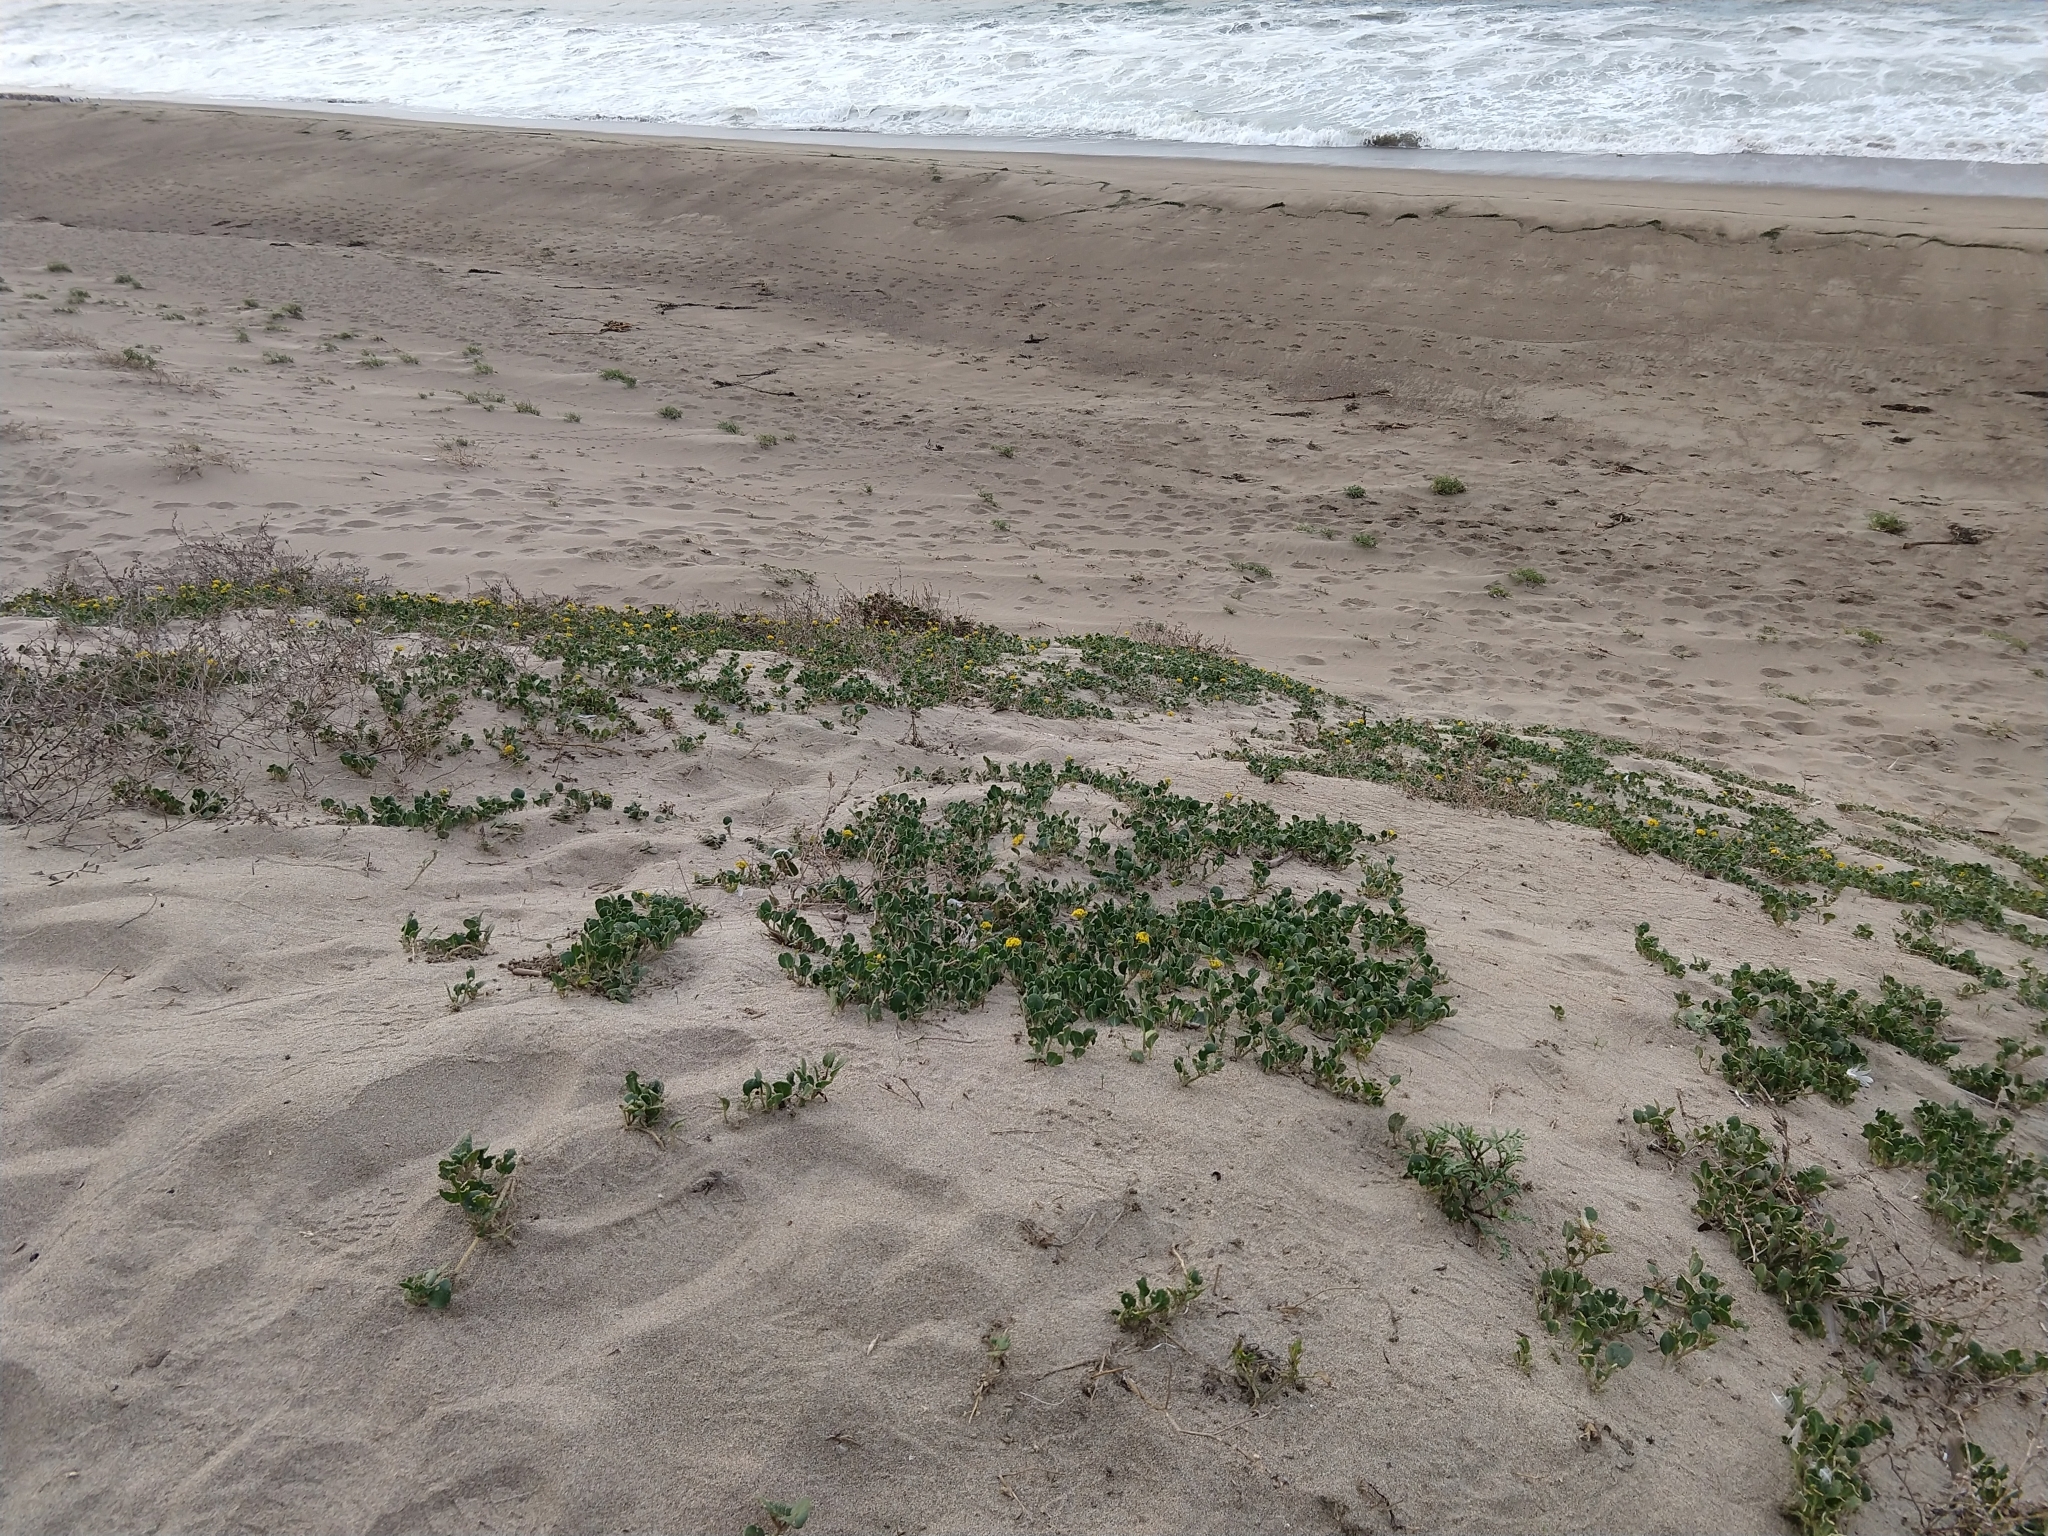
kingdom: Plantae
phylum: Tracheophyta
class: Magnoliopsida
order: Caryophyllales
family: Nyctaginaceae
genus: Abronia
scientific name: Abronia latifolia
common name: Yellow sand-verbena
